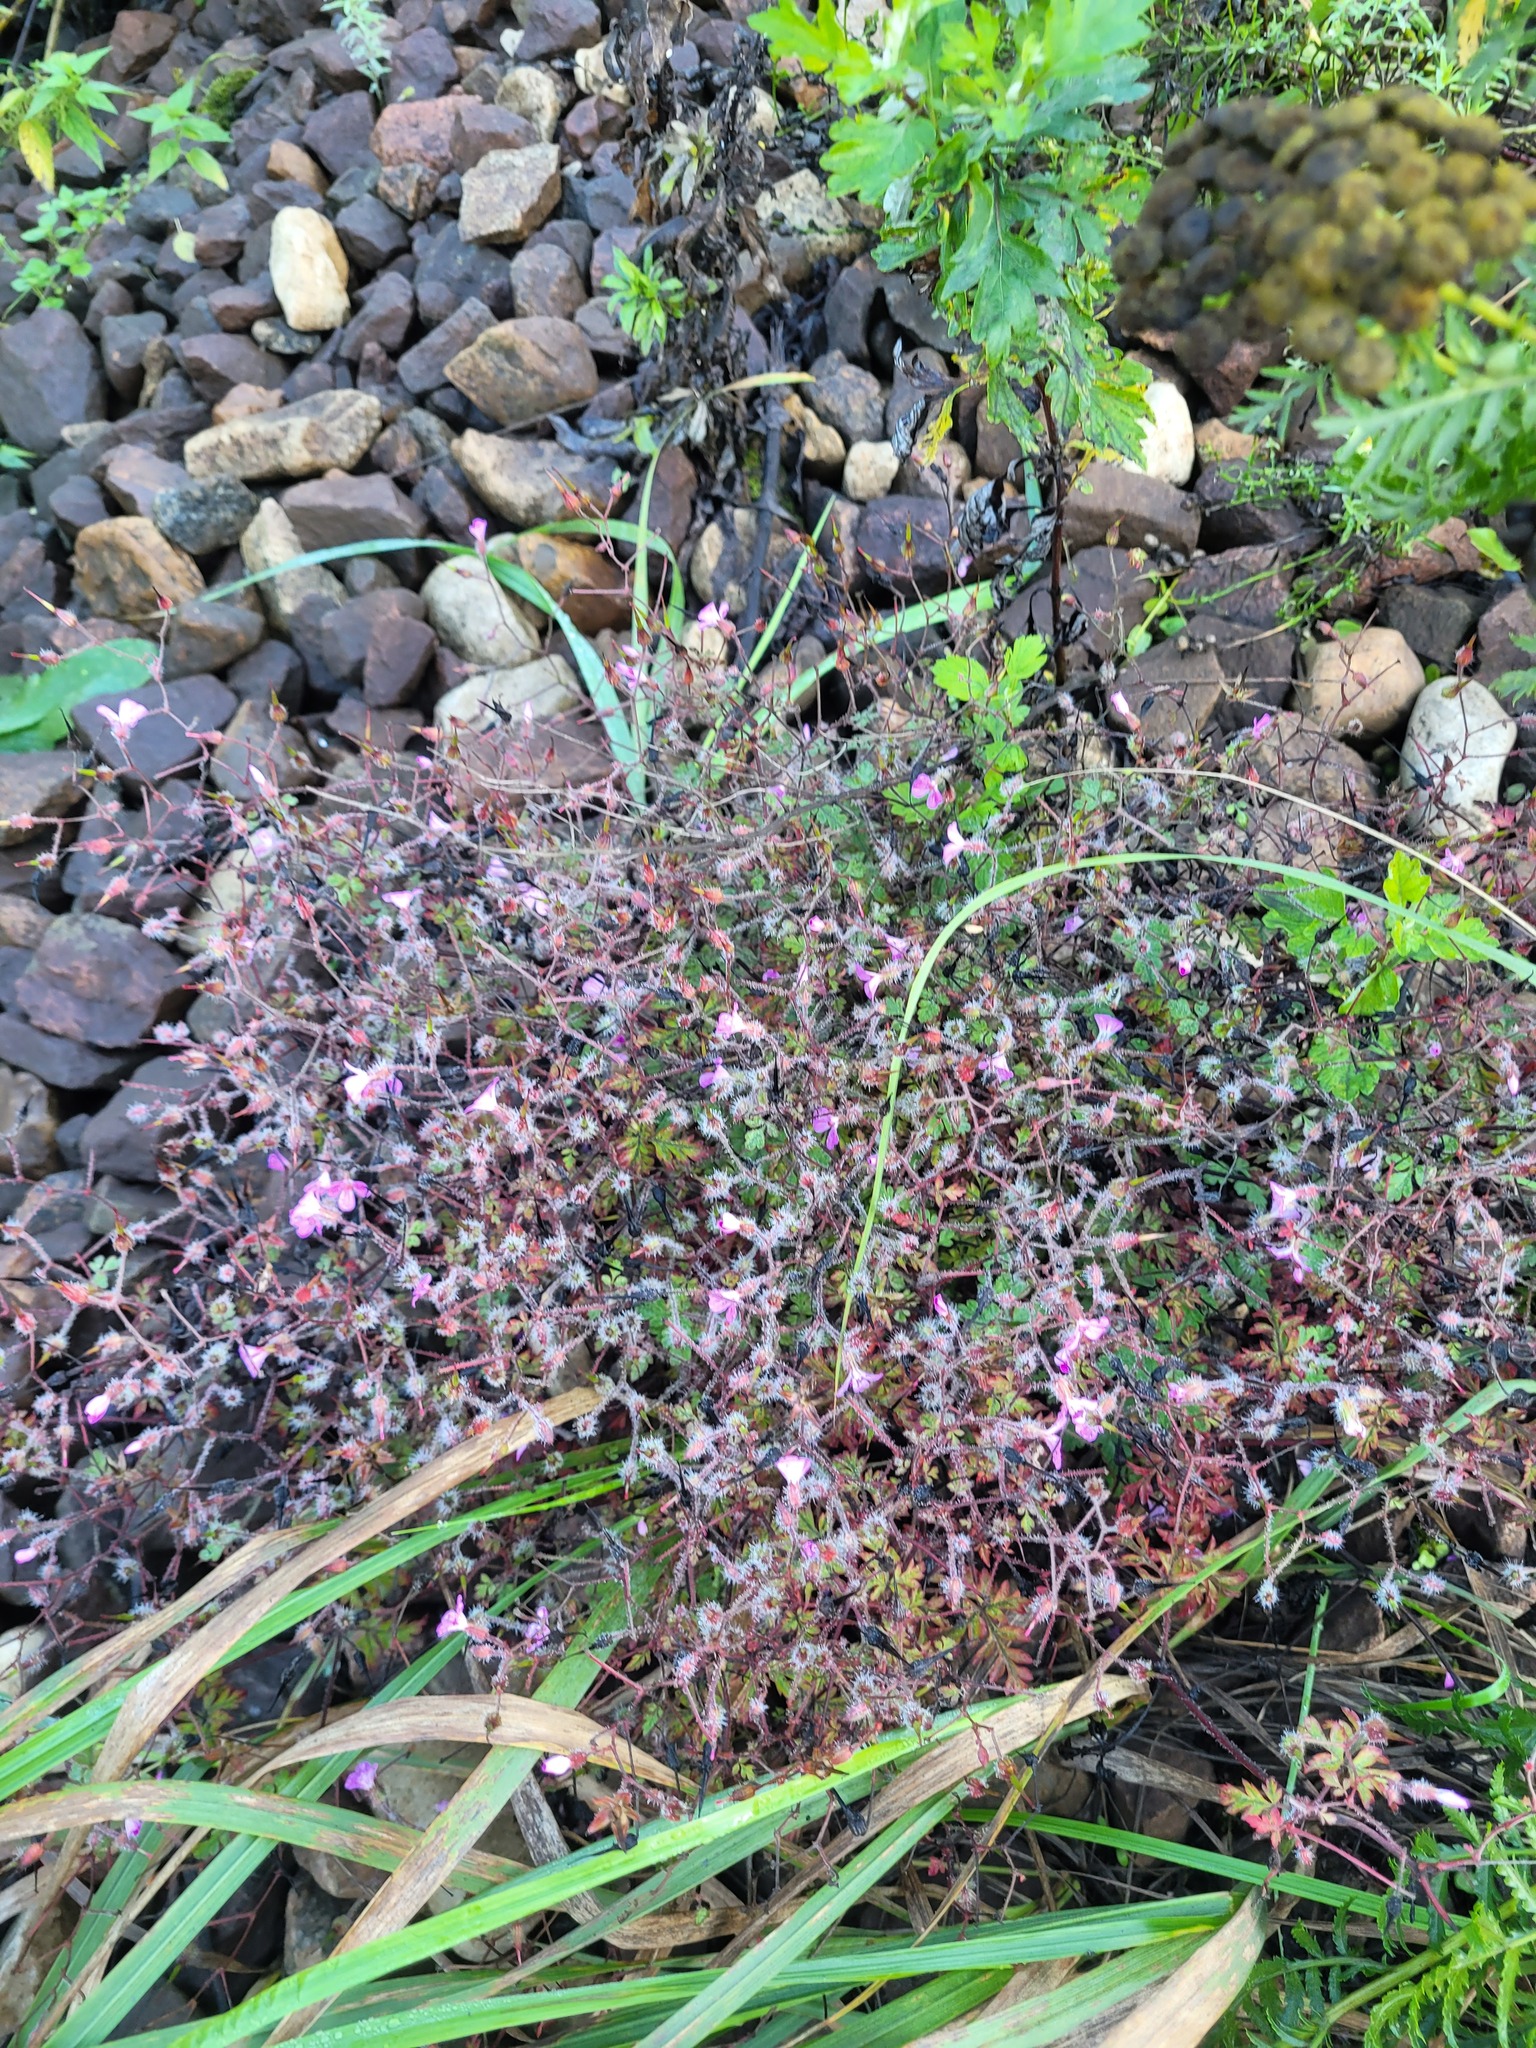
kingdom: Plantae
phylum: Tracheophyta
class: Magnoliopsida
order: Geraniales
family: Geraniaceae
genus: Geranium
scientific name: Geranium robertianum
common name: Herb-robert
